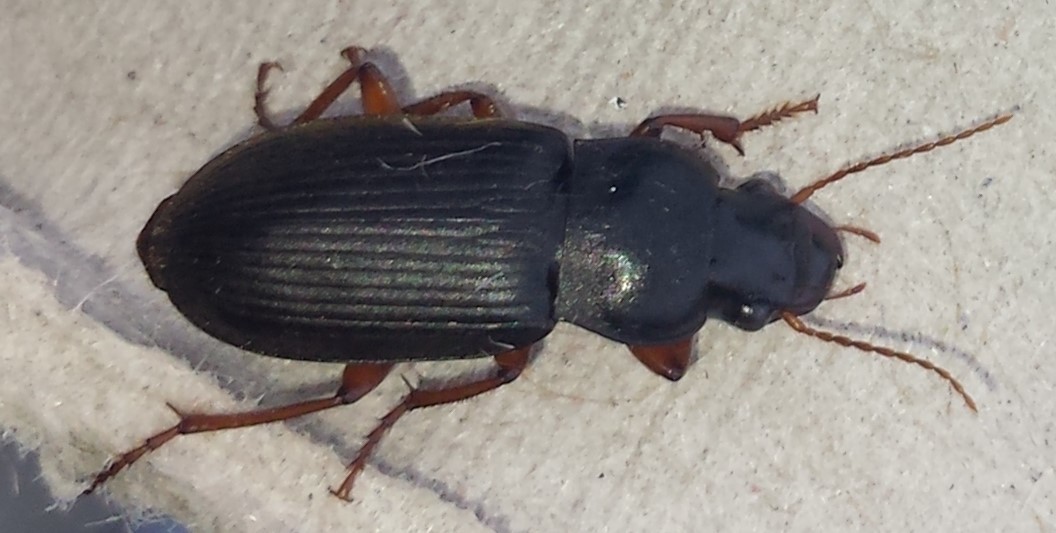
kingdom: Animalia
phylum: Arthropoda
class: Insecta
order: Coleoptera
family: Carabidae
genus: Harpalus
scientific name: Harpalus rufipes
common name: Strawberry harp ground beetle
